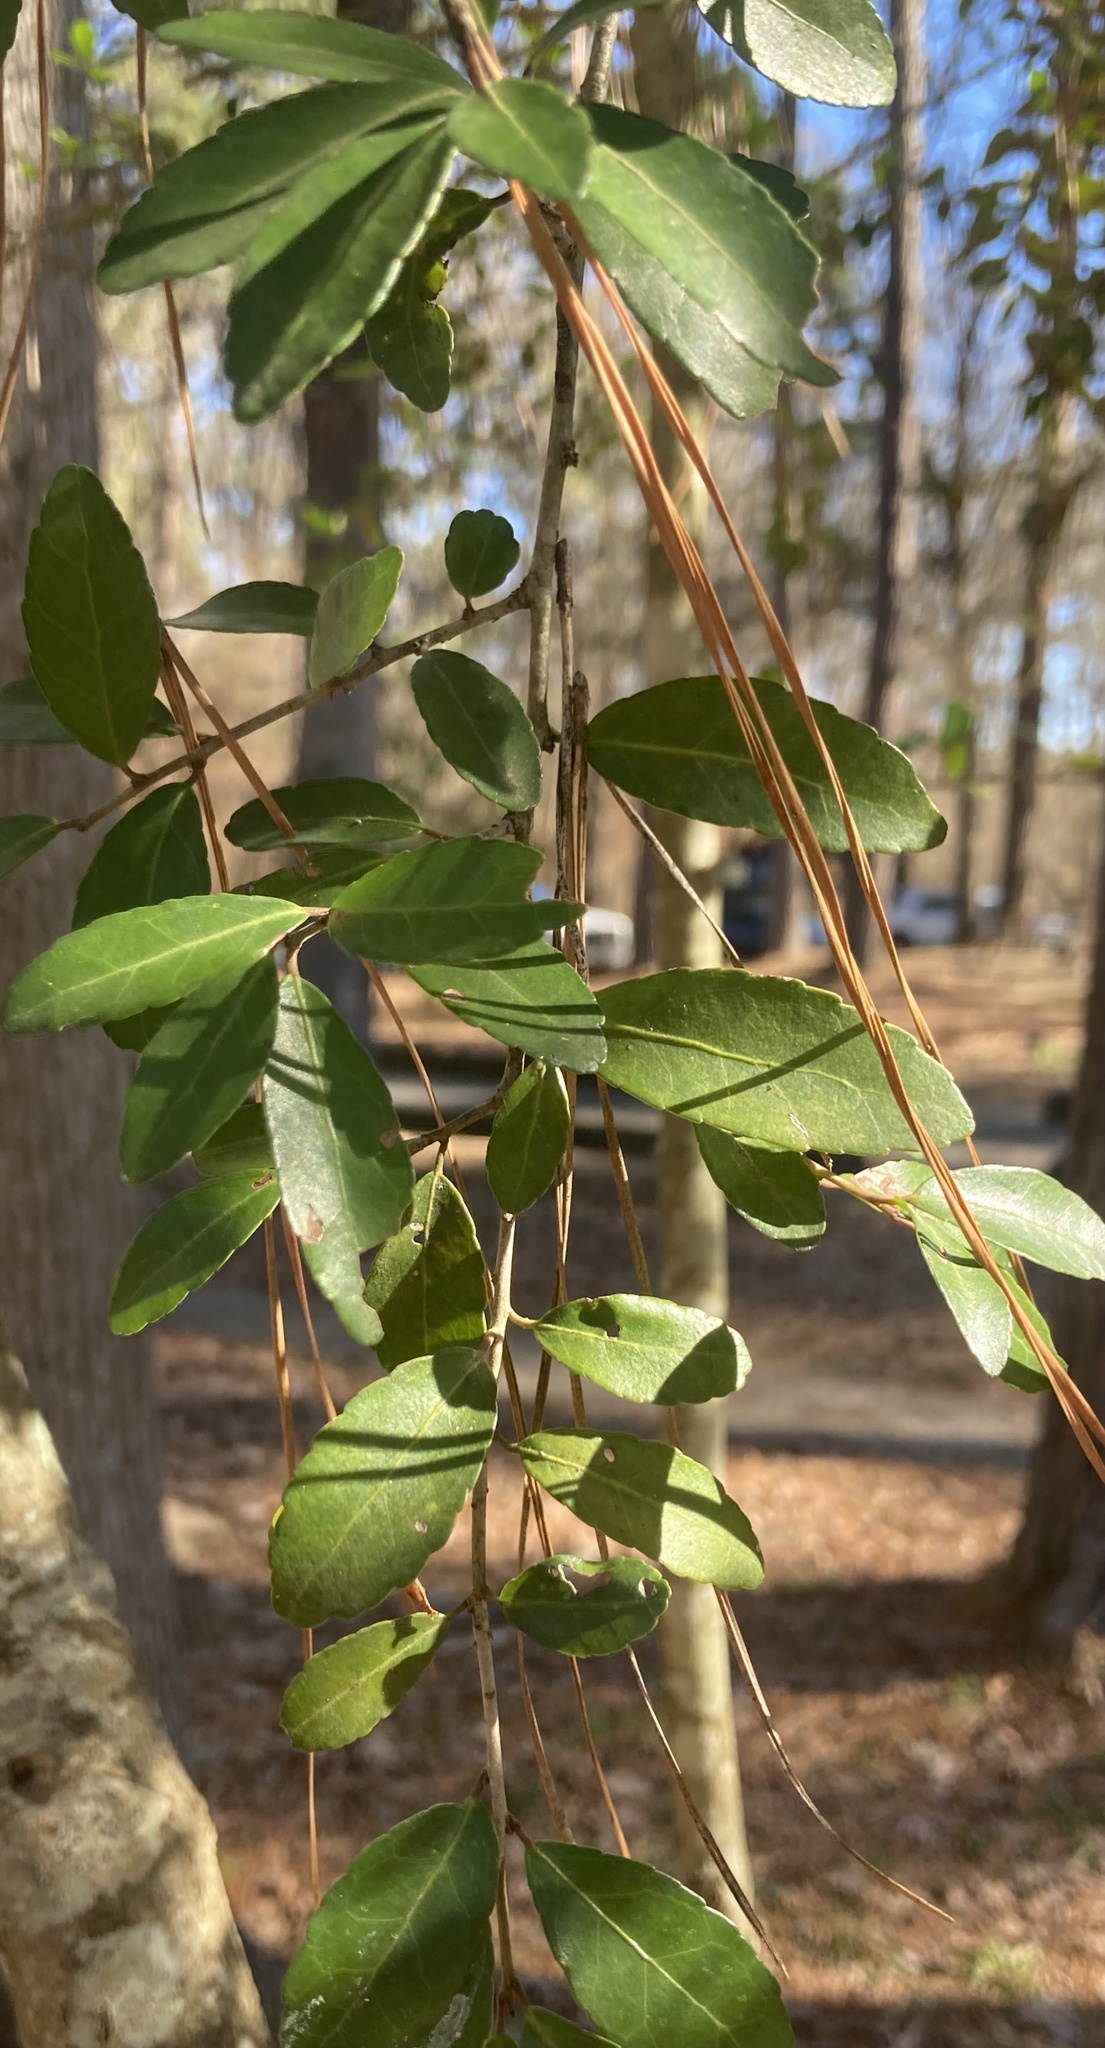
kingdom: Plantae
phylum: Tracheophyta
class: Magnoliopsida
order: Aquifoliales
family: Aquifoliaceae
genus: Ilex
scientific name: Ilex vomitoria
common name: Yaupon holly
